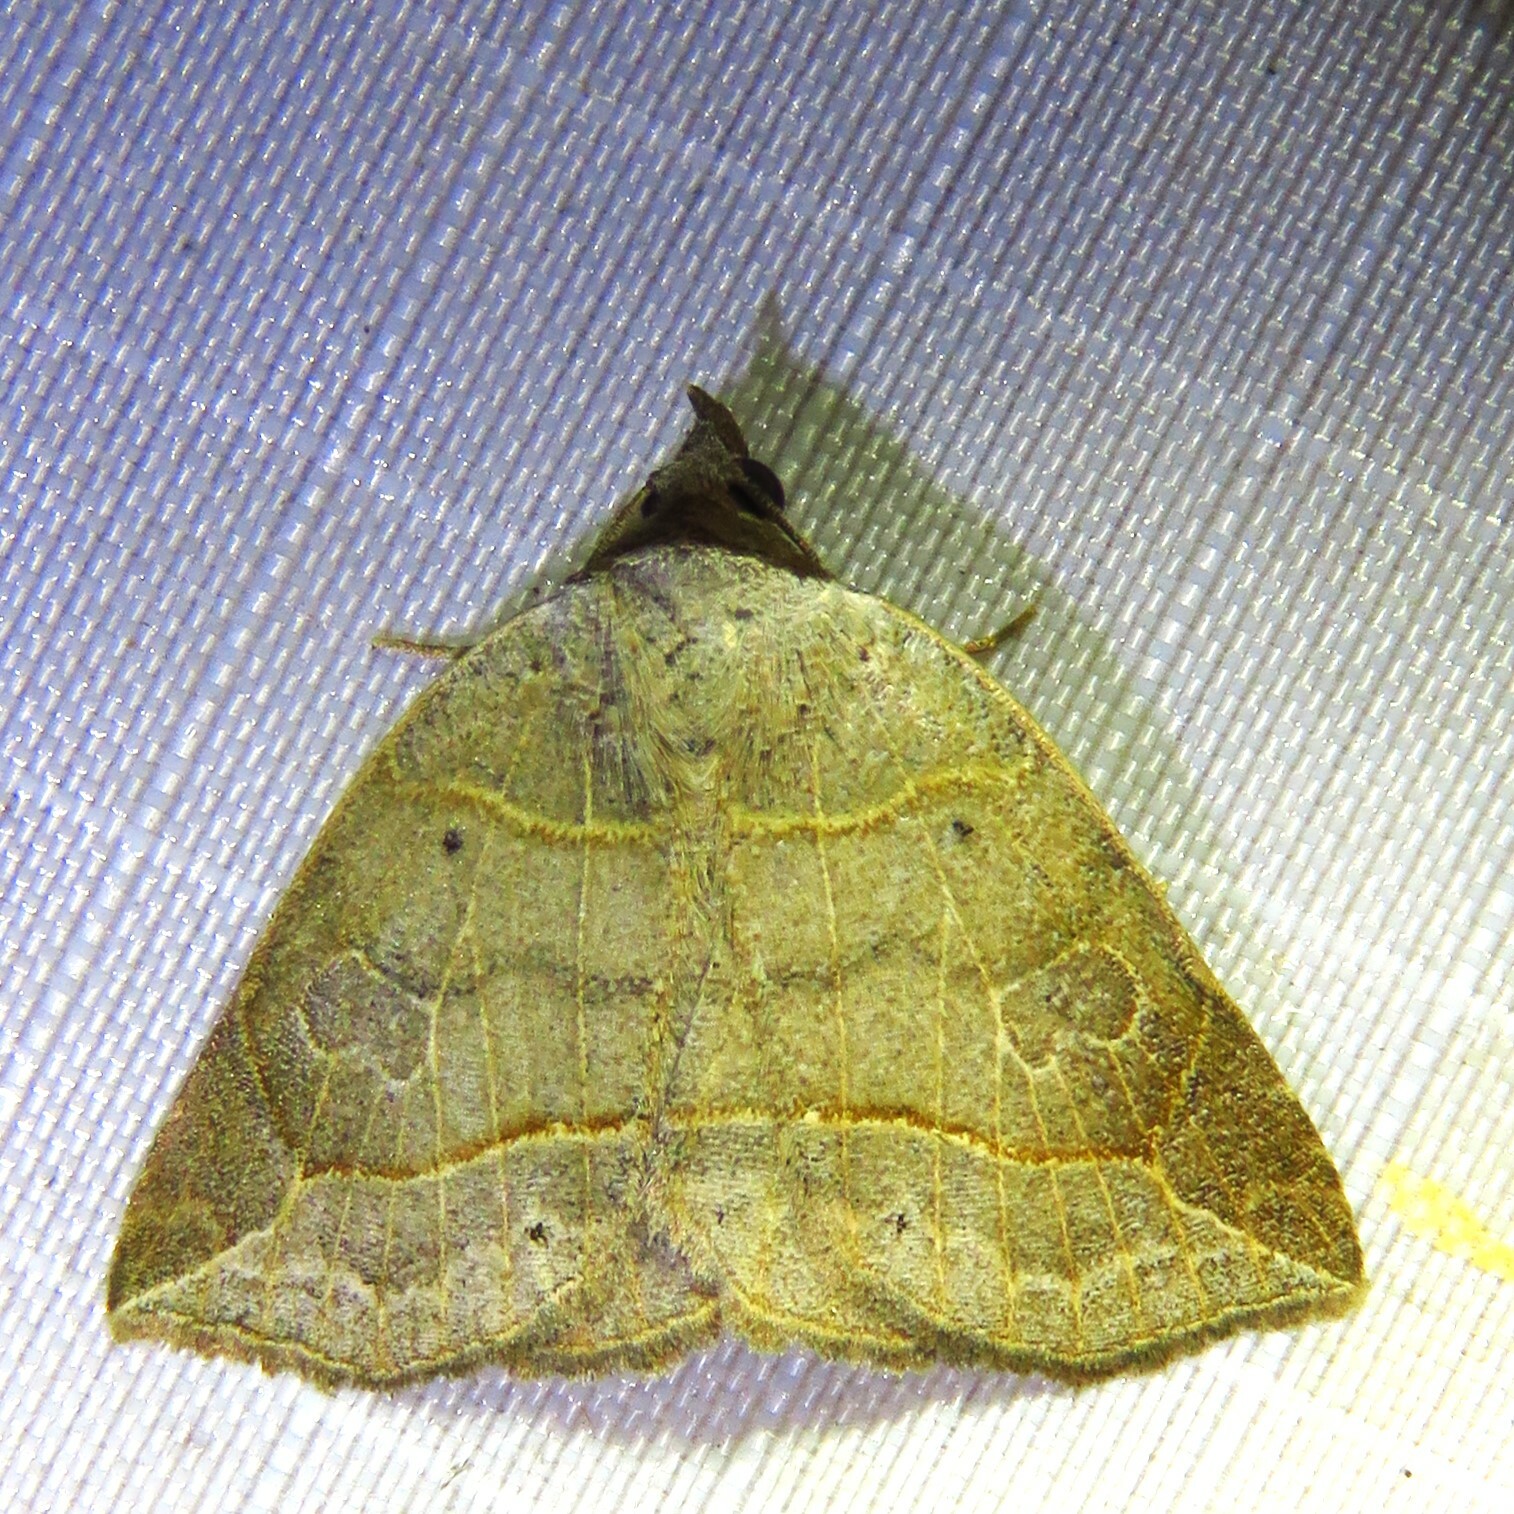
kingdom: Animalia
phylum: Arthropoda
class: Insecta
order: Lepidoptera
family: Erebidae
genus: Isogona
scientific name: Isogona tenuis
